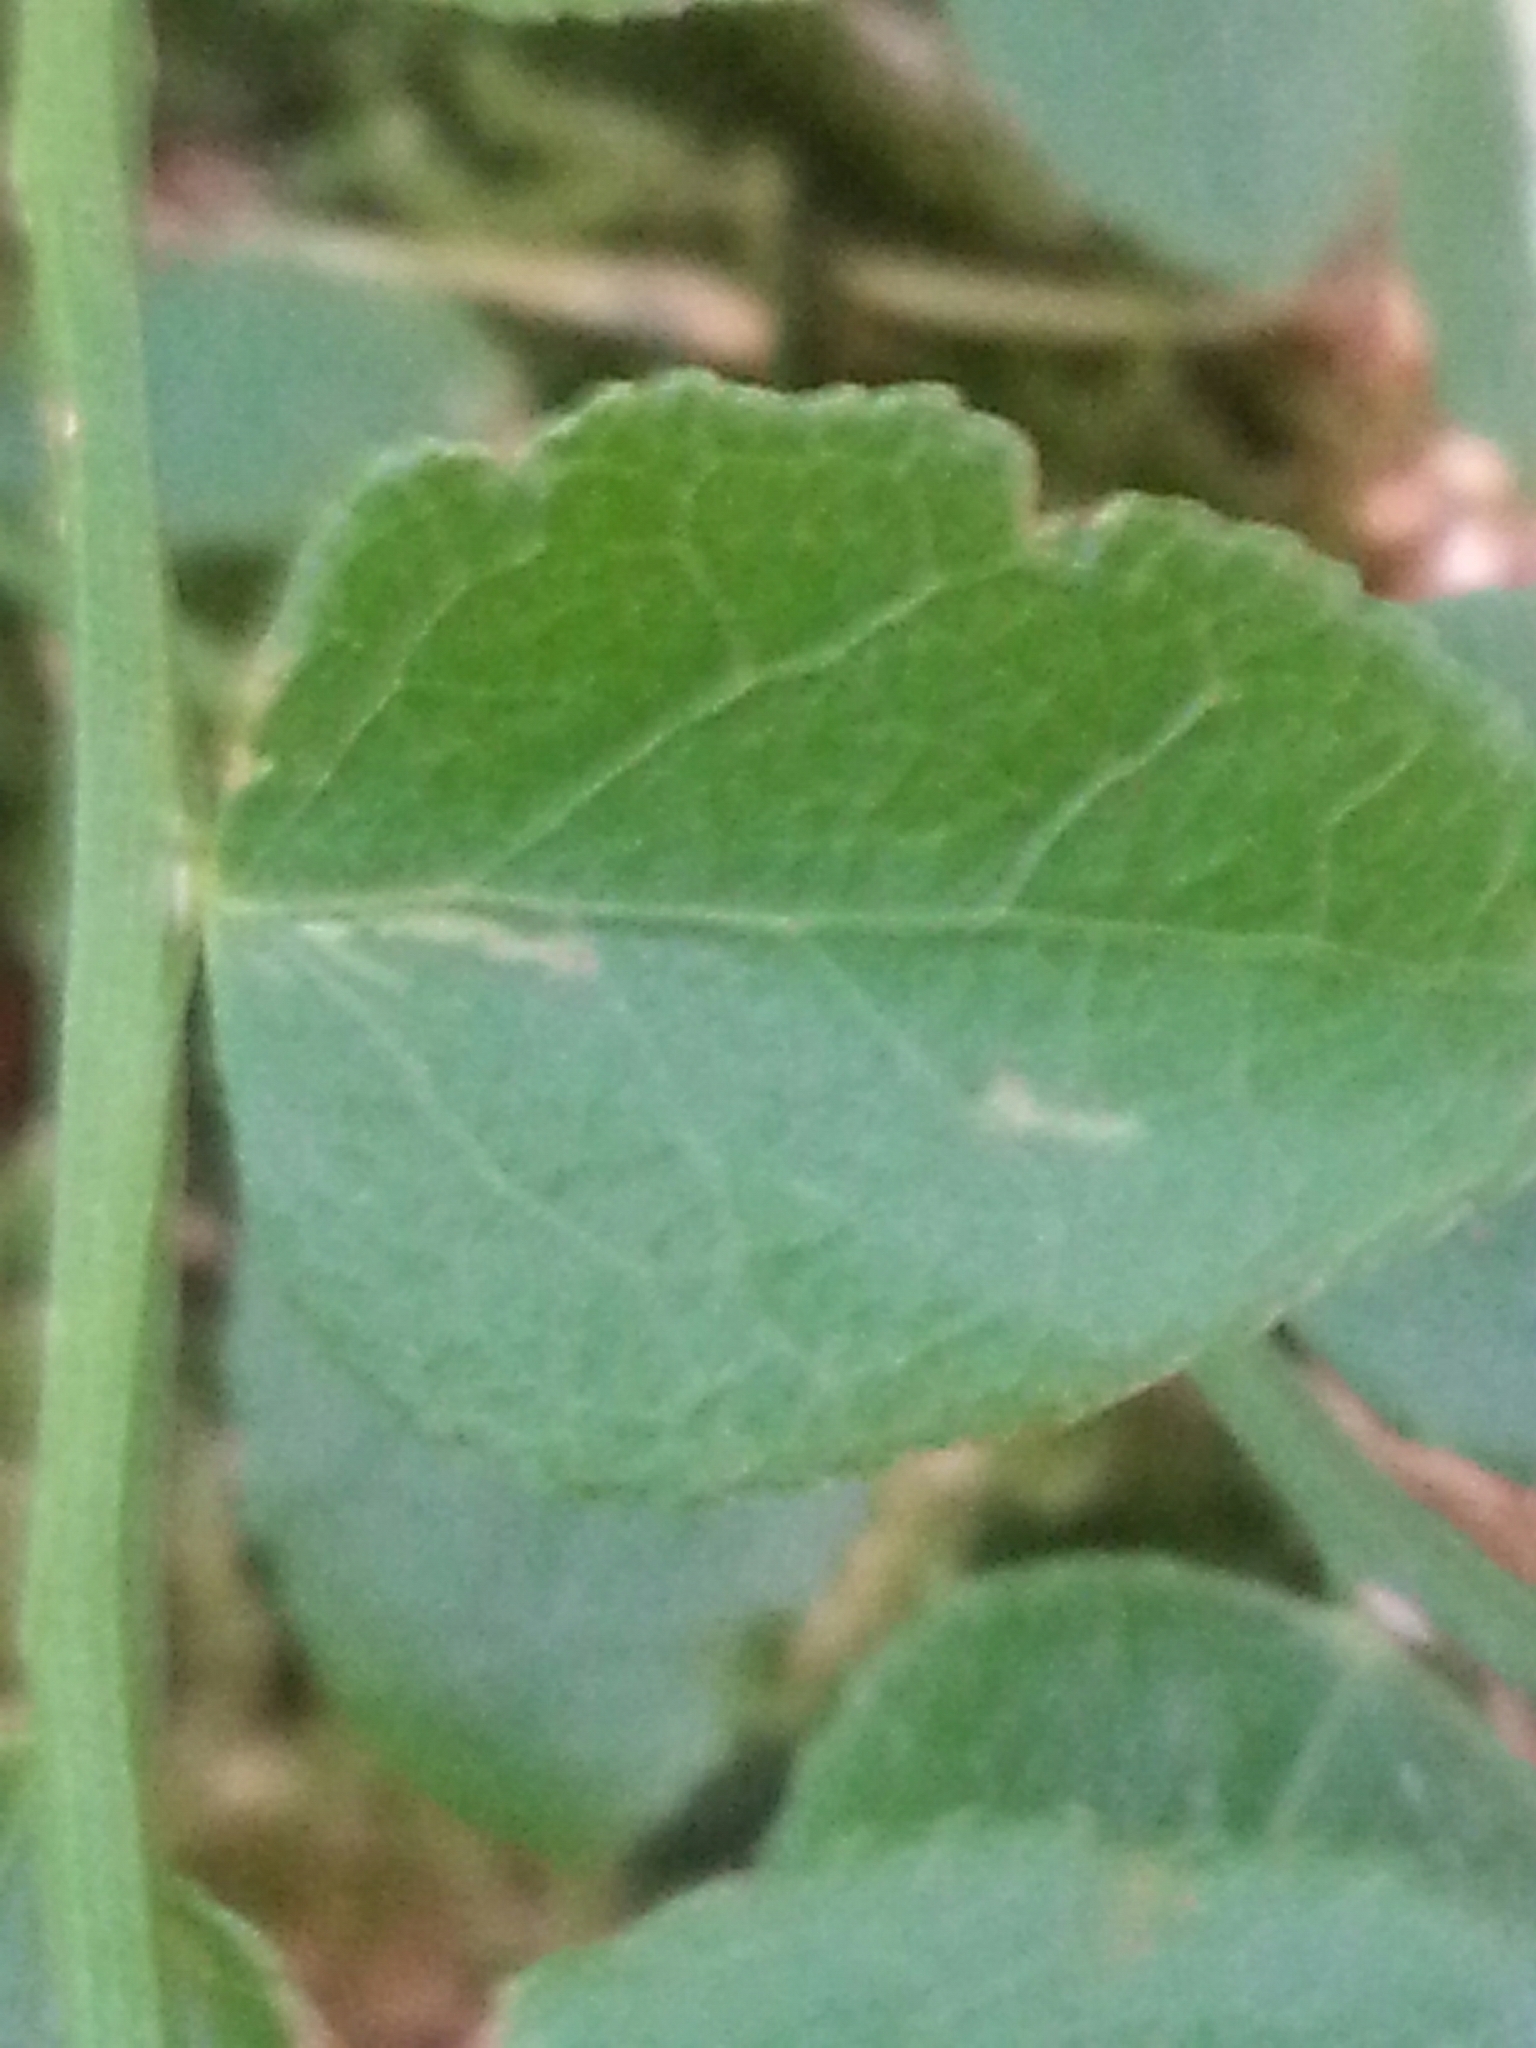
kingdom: Plantae
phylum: Tracheophyta
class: Magnoliopsida
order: Ericales
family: Ericaceae
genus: Vaccinium
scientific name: Vaccinium parvifolium
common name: Red-huckleberry
